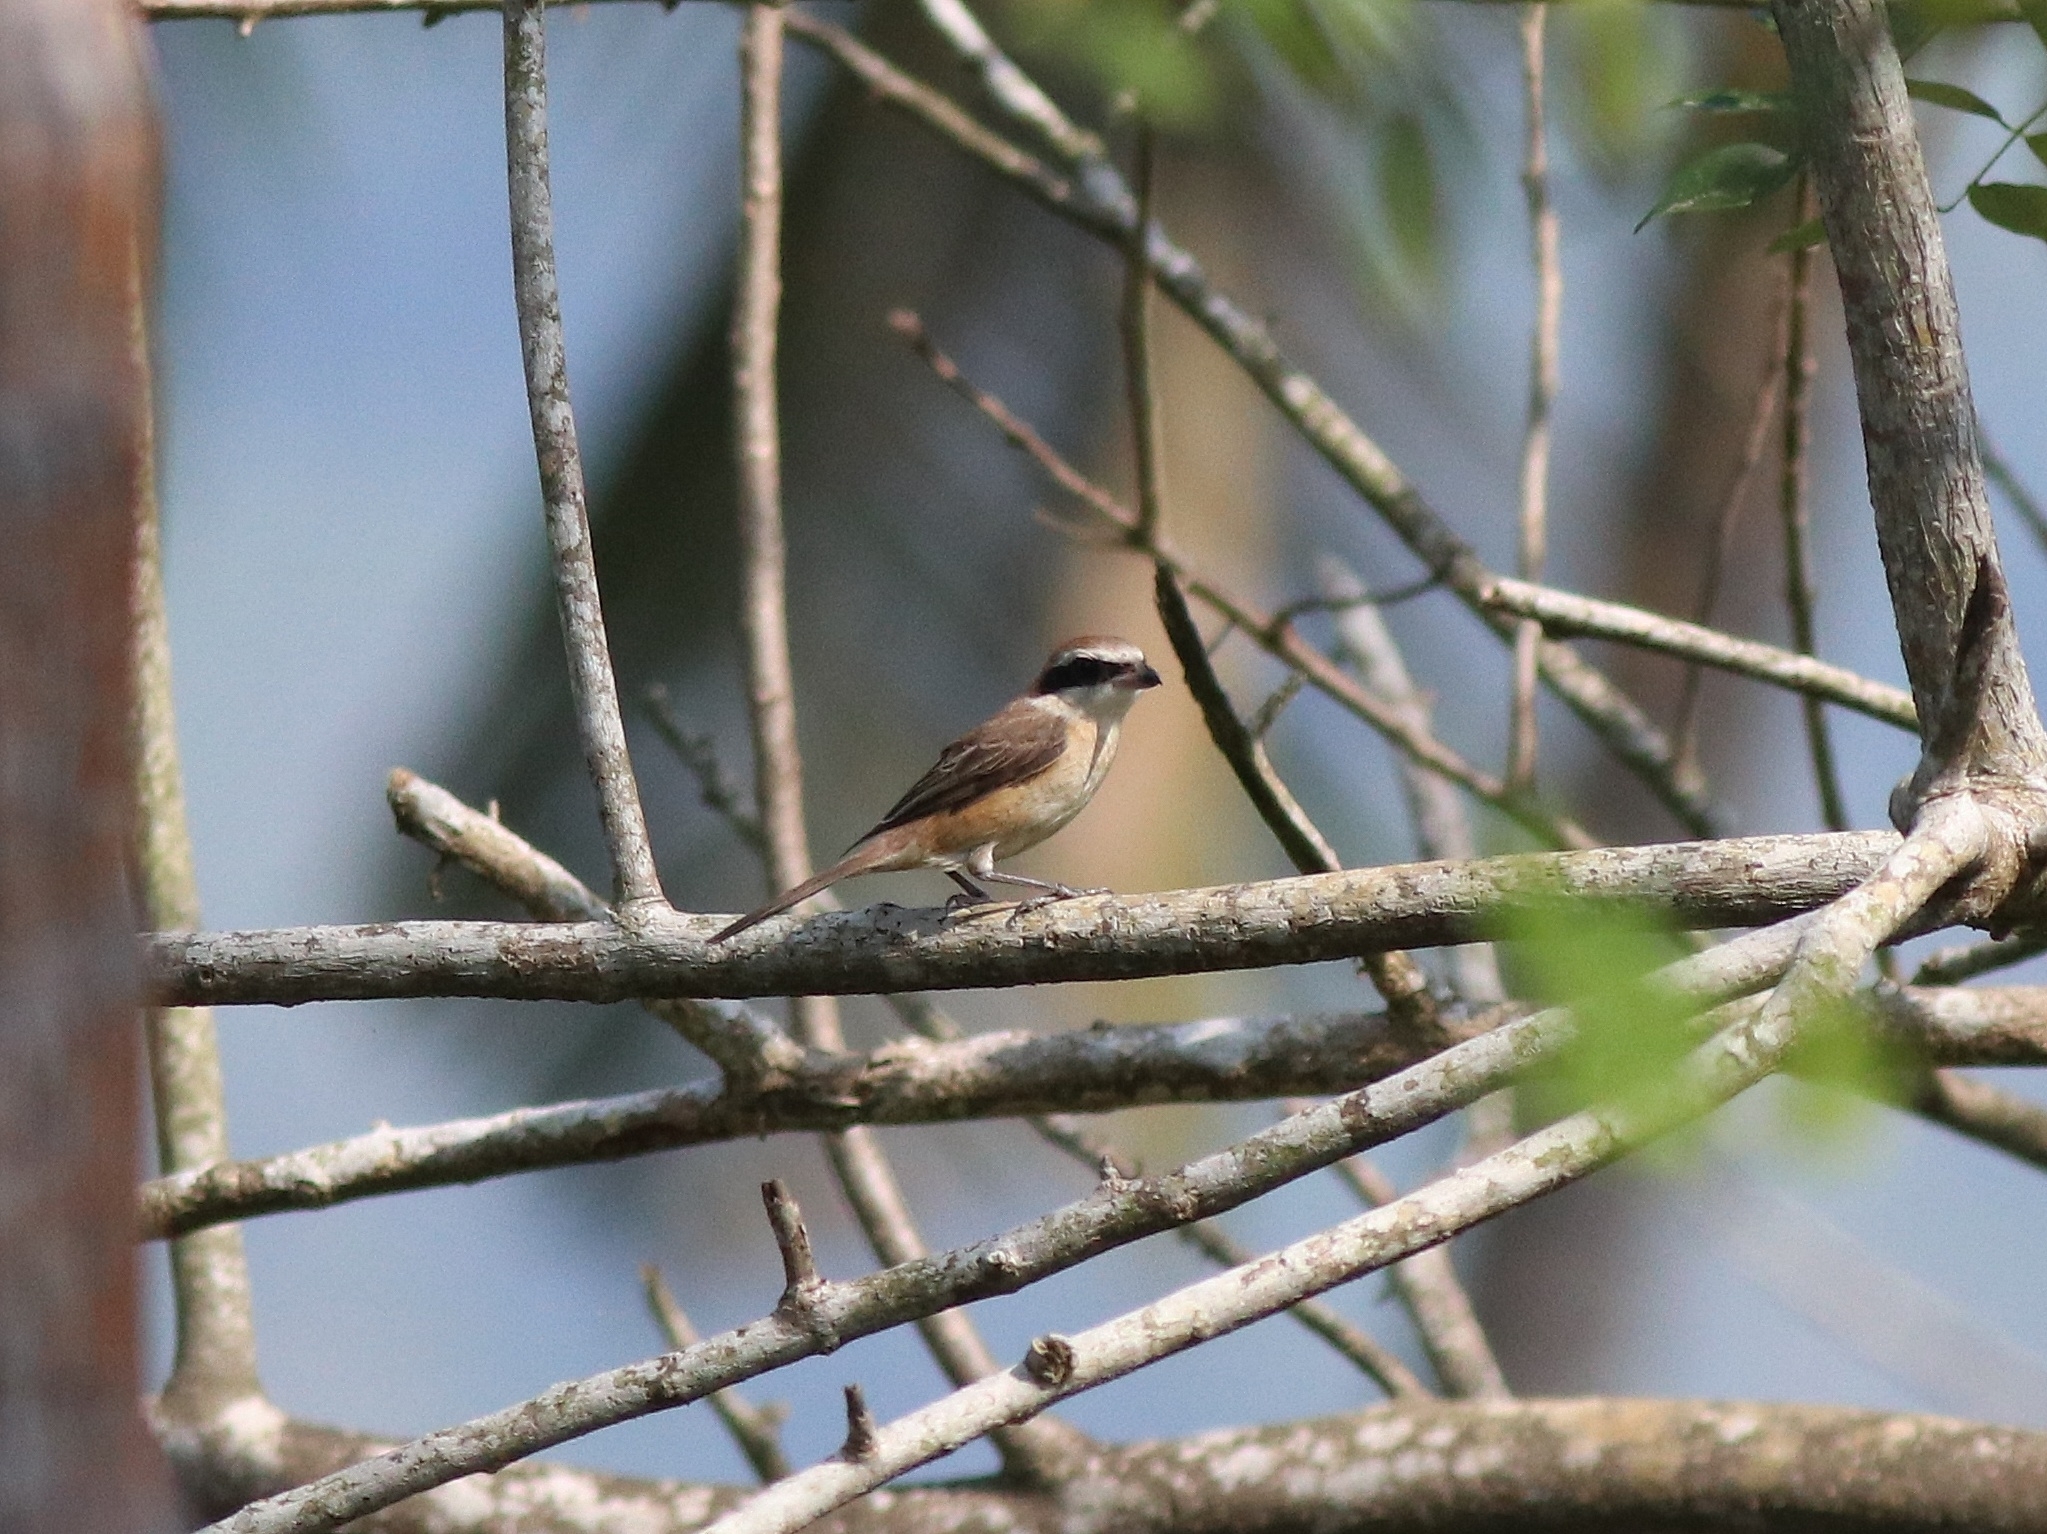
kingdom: Animalia
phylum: Chordata
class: Aves
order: Passeriformes
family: Laniidae
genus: Lanius
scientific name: Lanius cristatus
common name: Brown shrike
